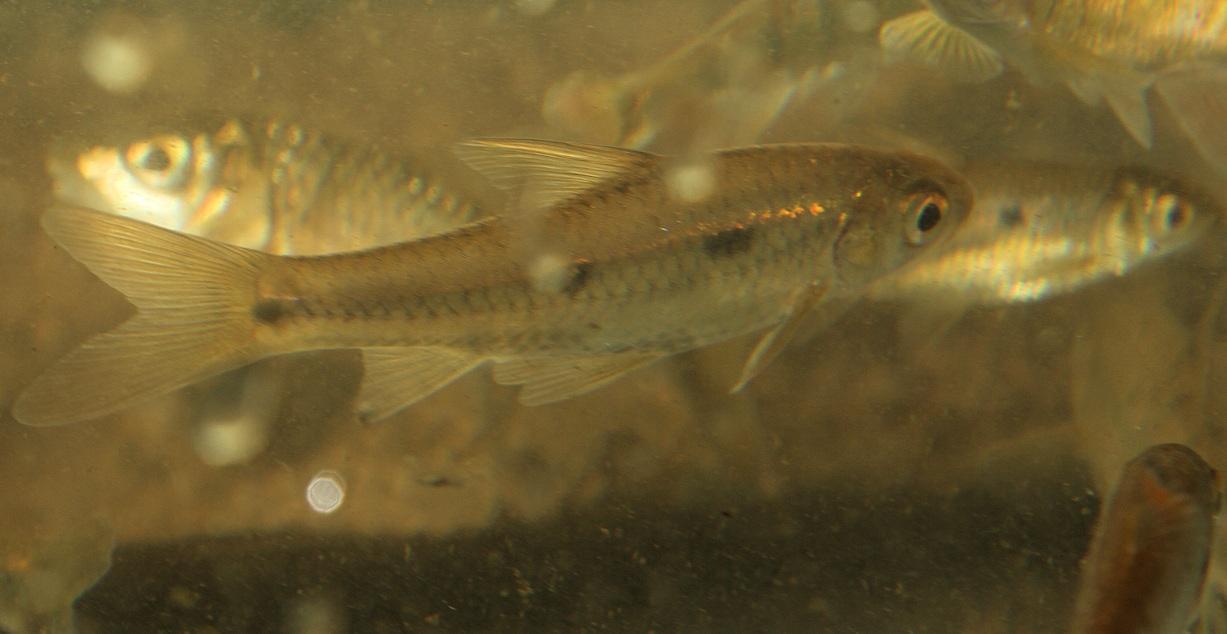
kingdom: Animalia
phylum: Chordata
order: Cypriniformes
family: Cyprinidae
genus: Enteromius
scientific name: Enteromius trimaculatus
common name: Threespot barb
